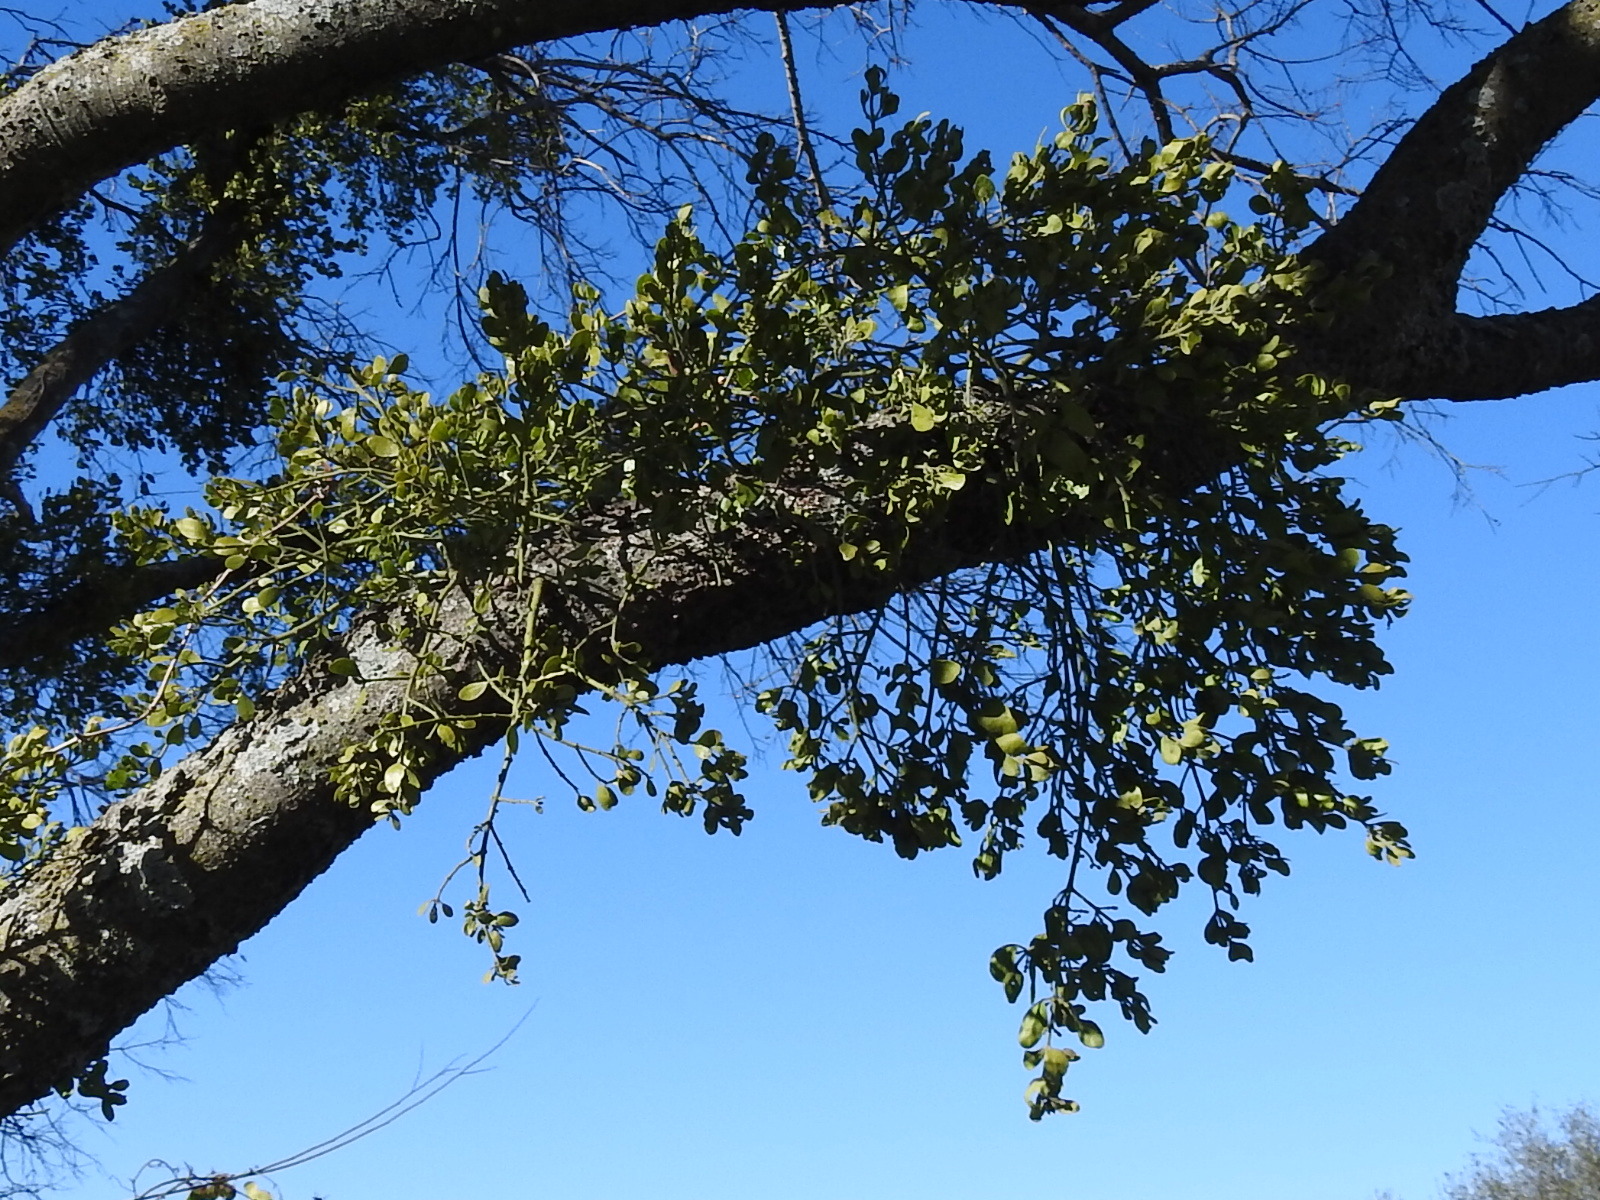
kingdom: Plantae
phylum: Tracheophyta
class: Magnoliopsida
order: Santalales
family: Viscaceae
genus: Phoradendron
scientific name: Phoradendron leucarpum
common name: Pacific mistletoe
